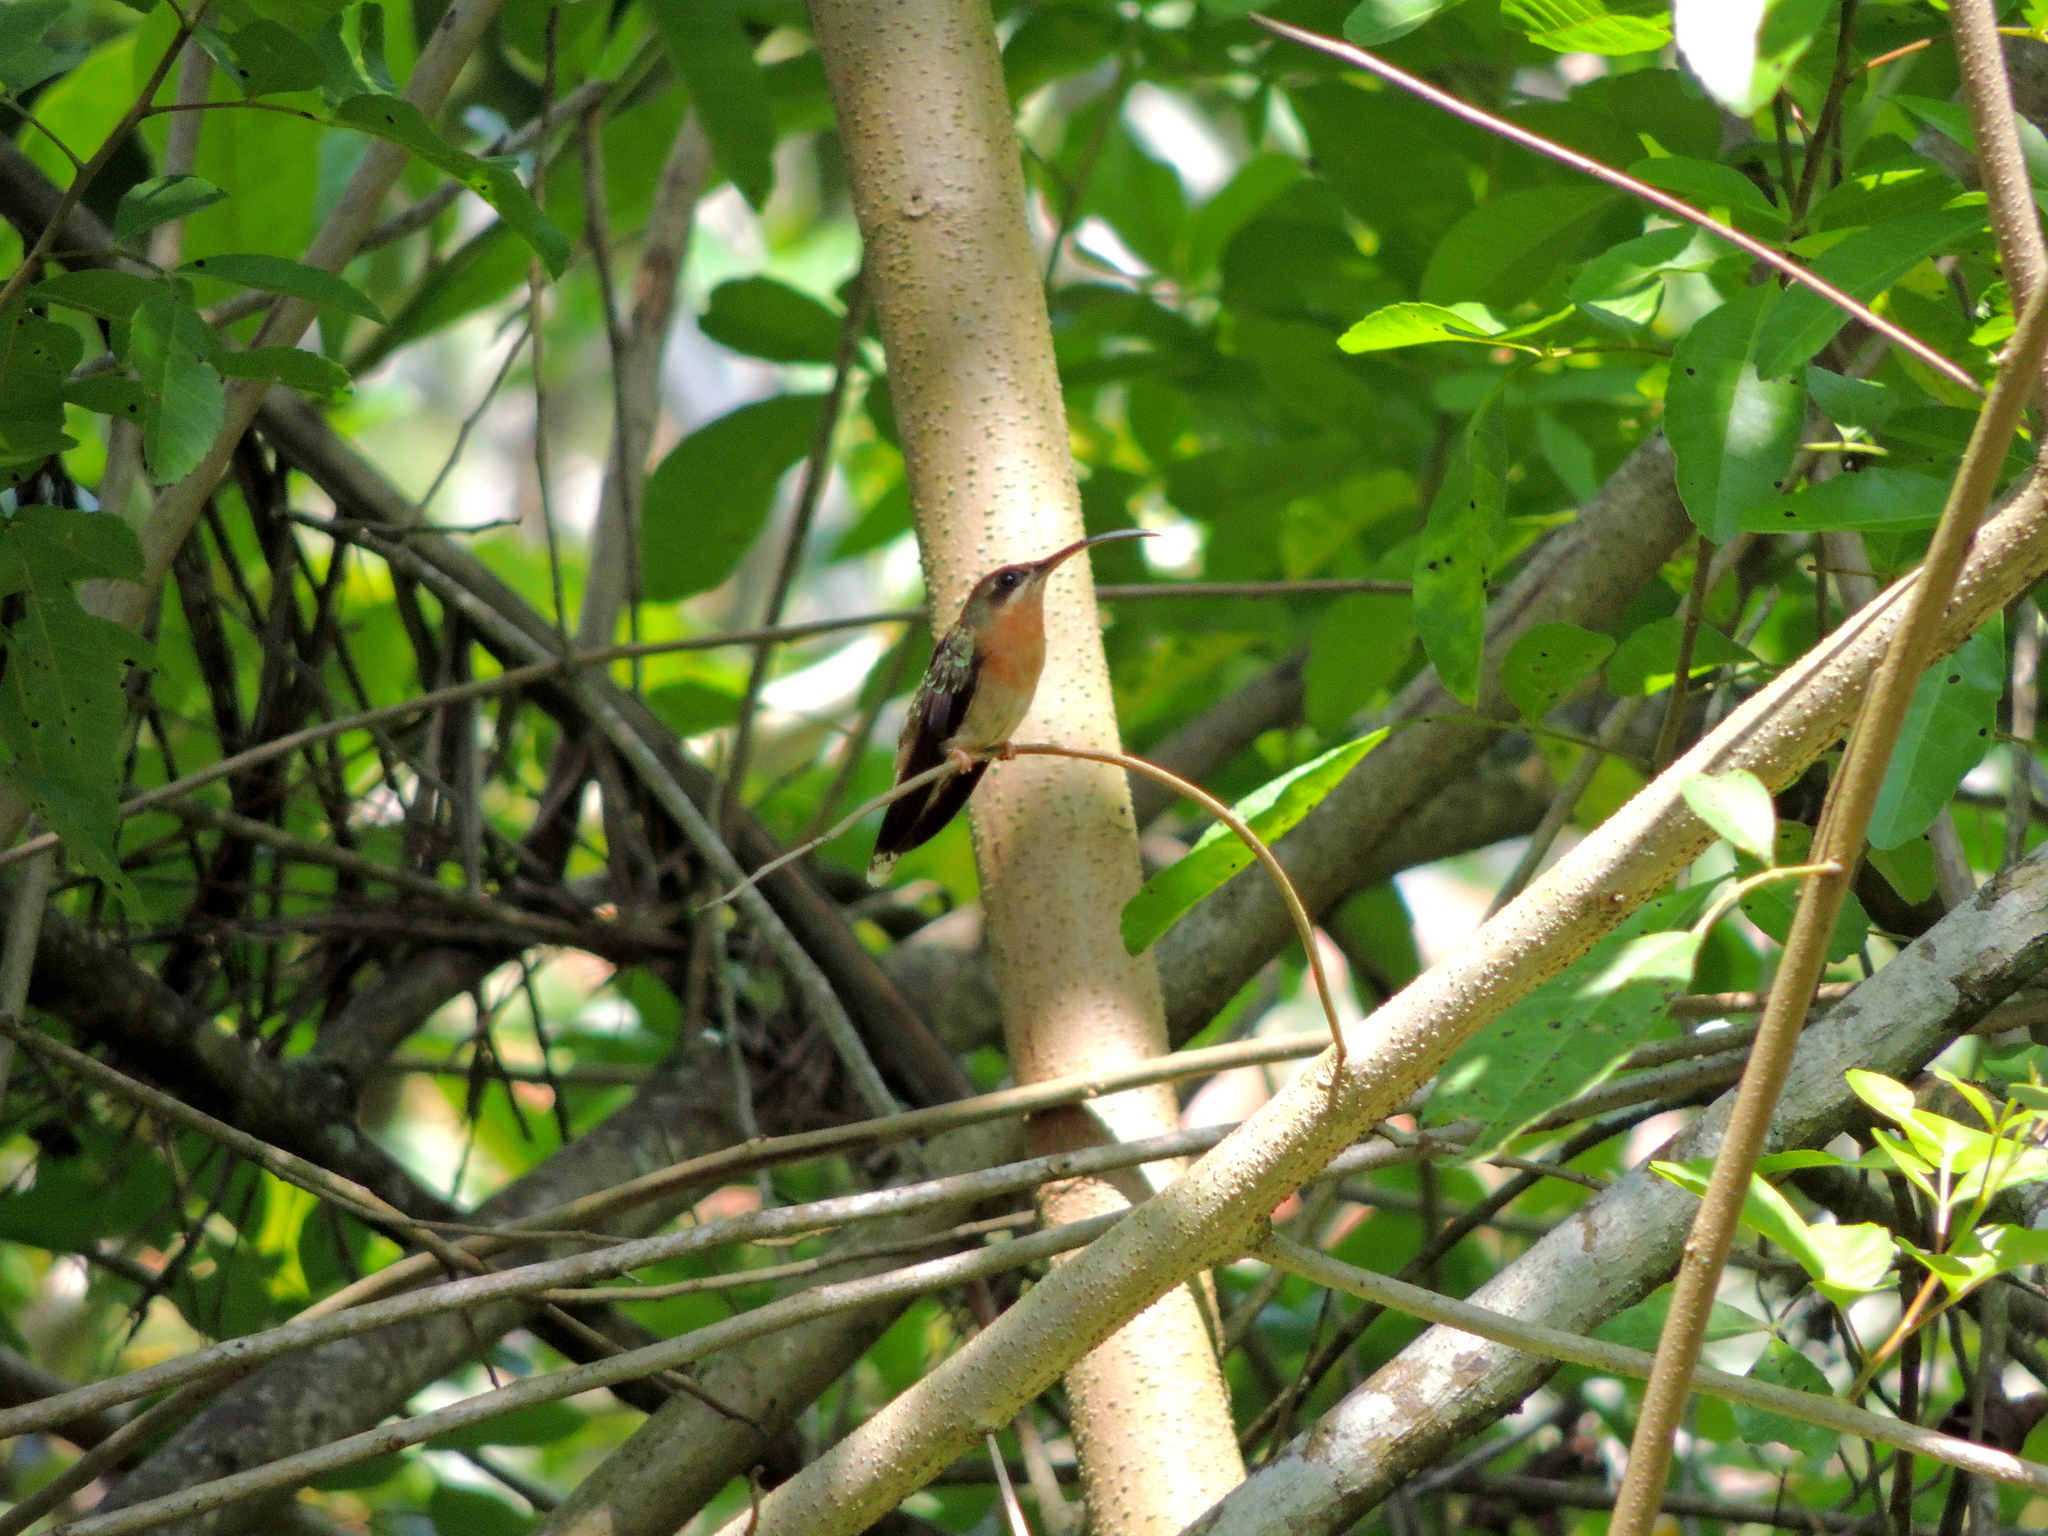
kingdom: Animalia
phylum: Chordata
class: Aves
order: Apodiformes
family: Trochilidae
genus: Glaucis
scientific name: Glaucis hirsutus
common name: Rufous-breasted hermit
